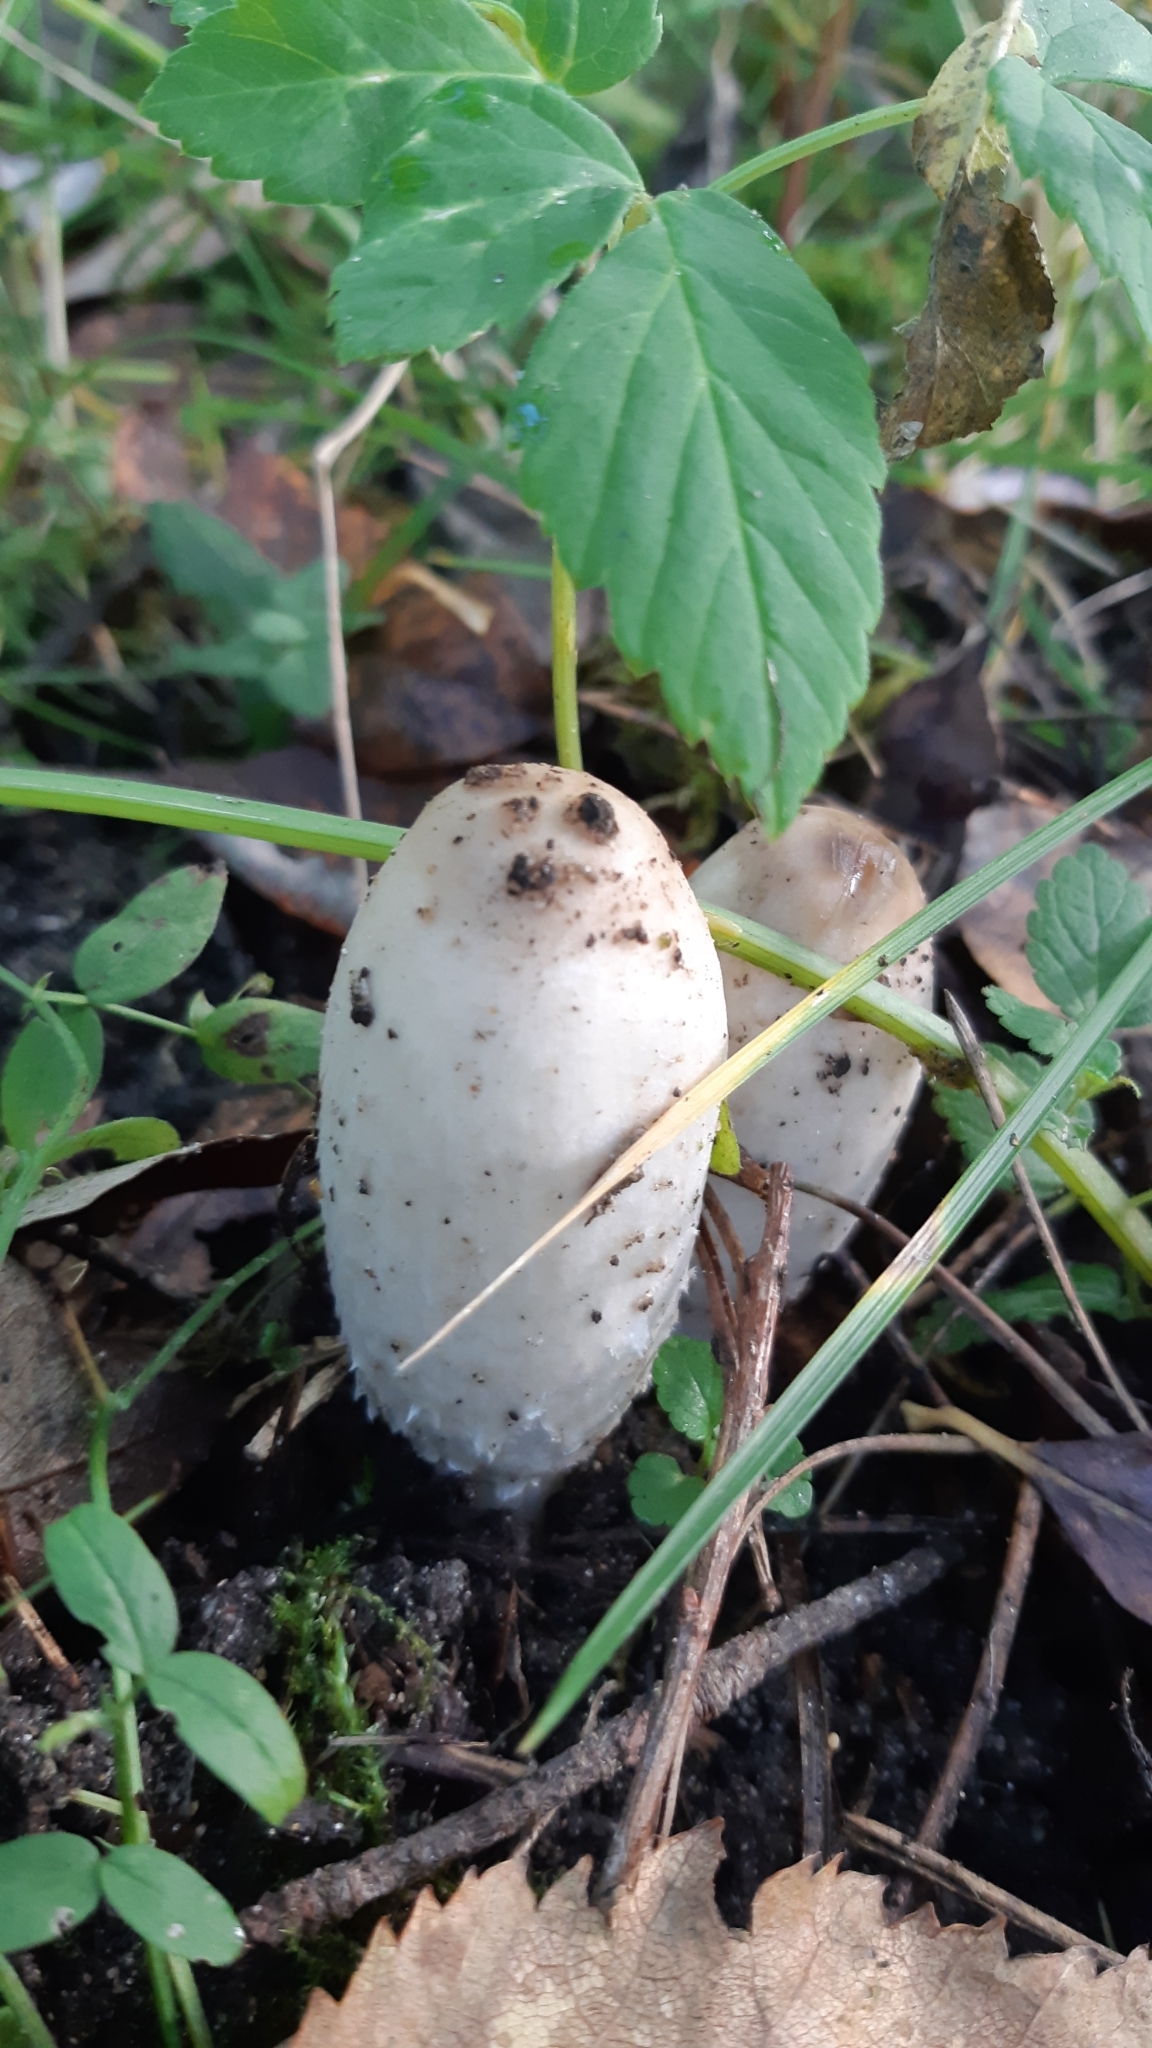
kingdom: Fungi
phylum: Basidiomycota
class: Agaricomycetes
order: Agaricales
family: Agaricaceae
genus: Coprinus
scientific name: Coprinus comatus
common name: Lawyer's wig
